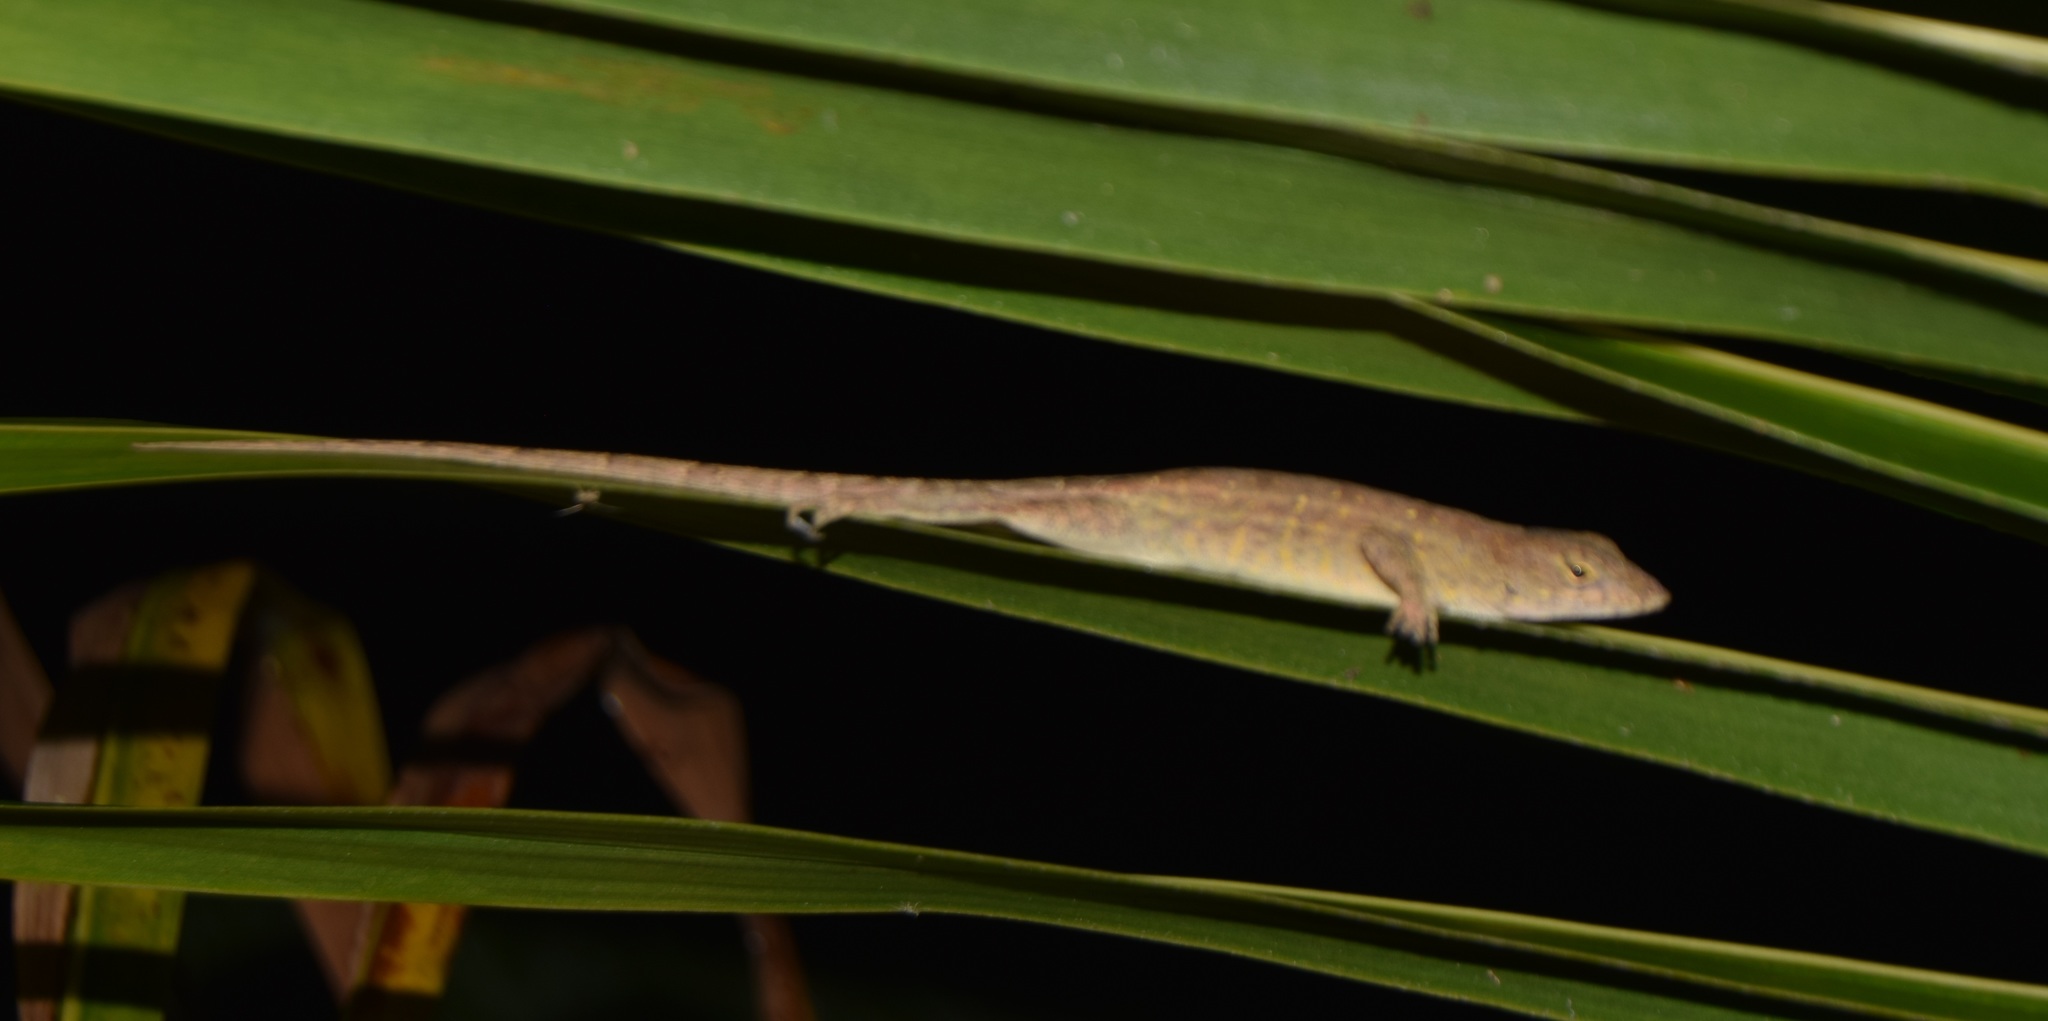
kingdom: Animalia
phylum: Chordata
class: Squamata
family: Dactyloidae
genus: Anolis
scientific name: Anolis sagrei
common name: Brown anole
